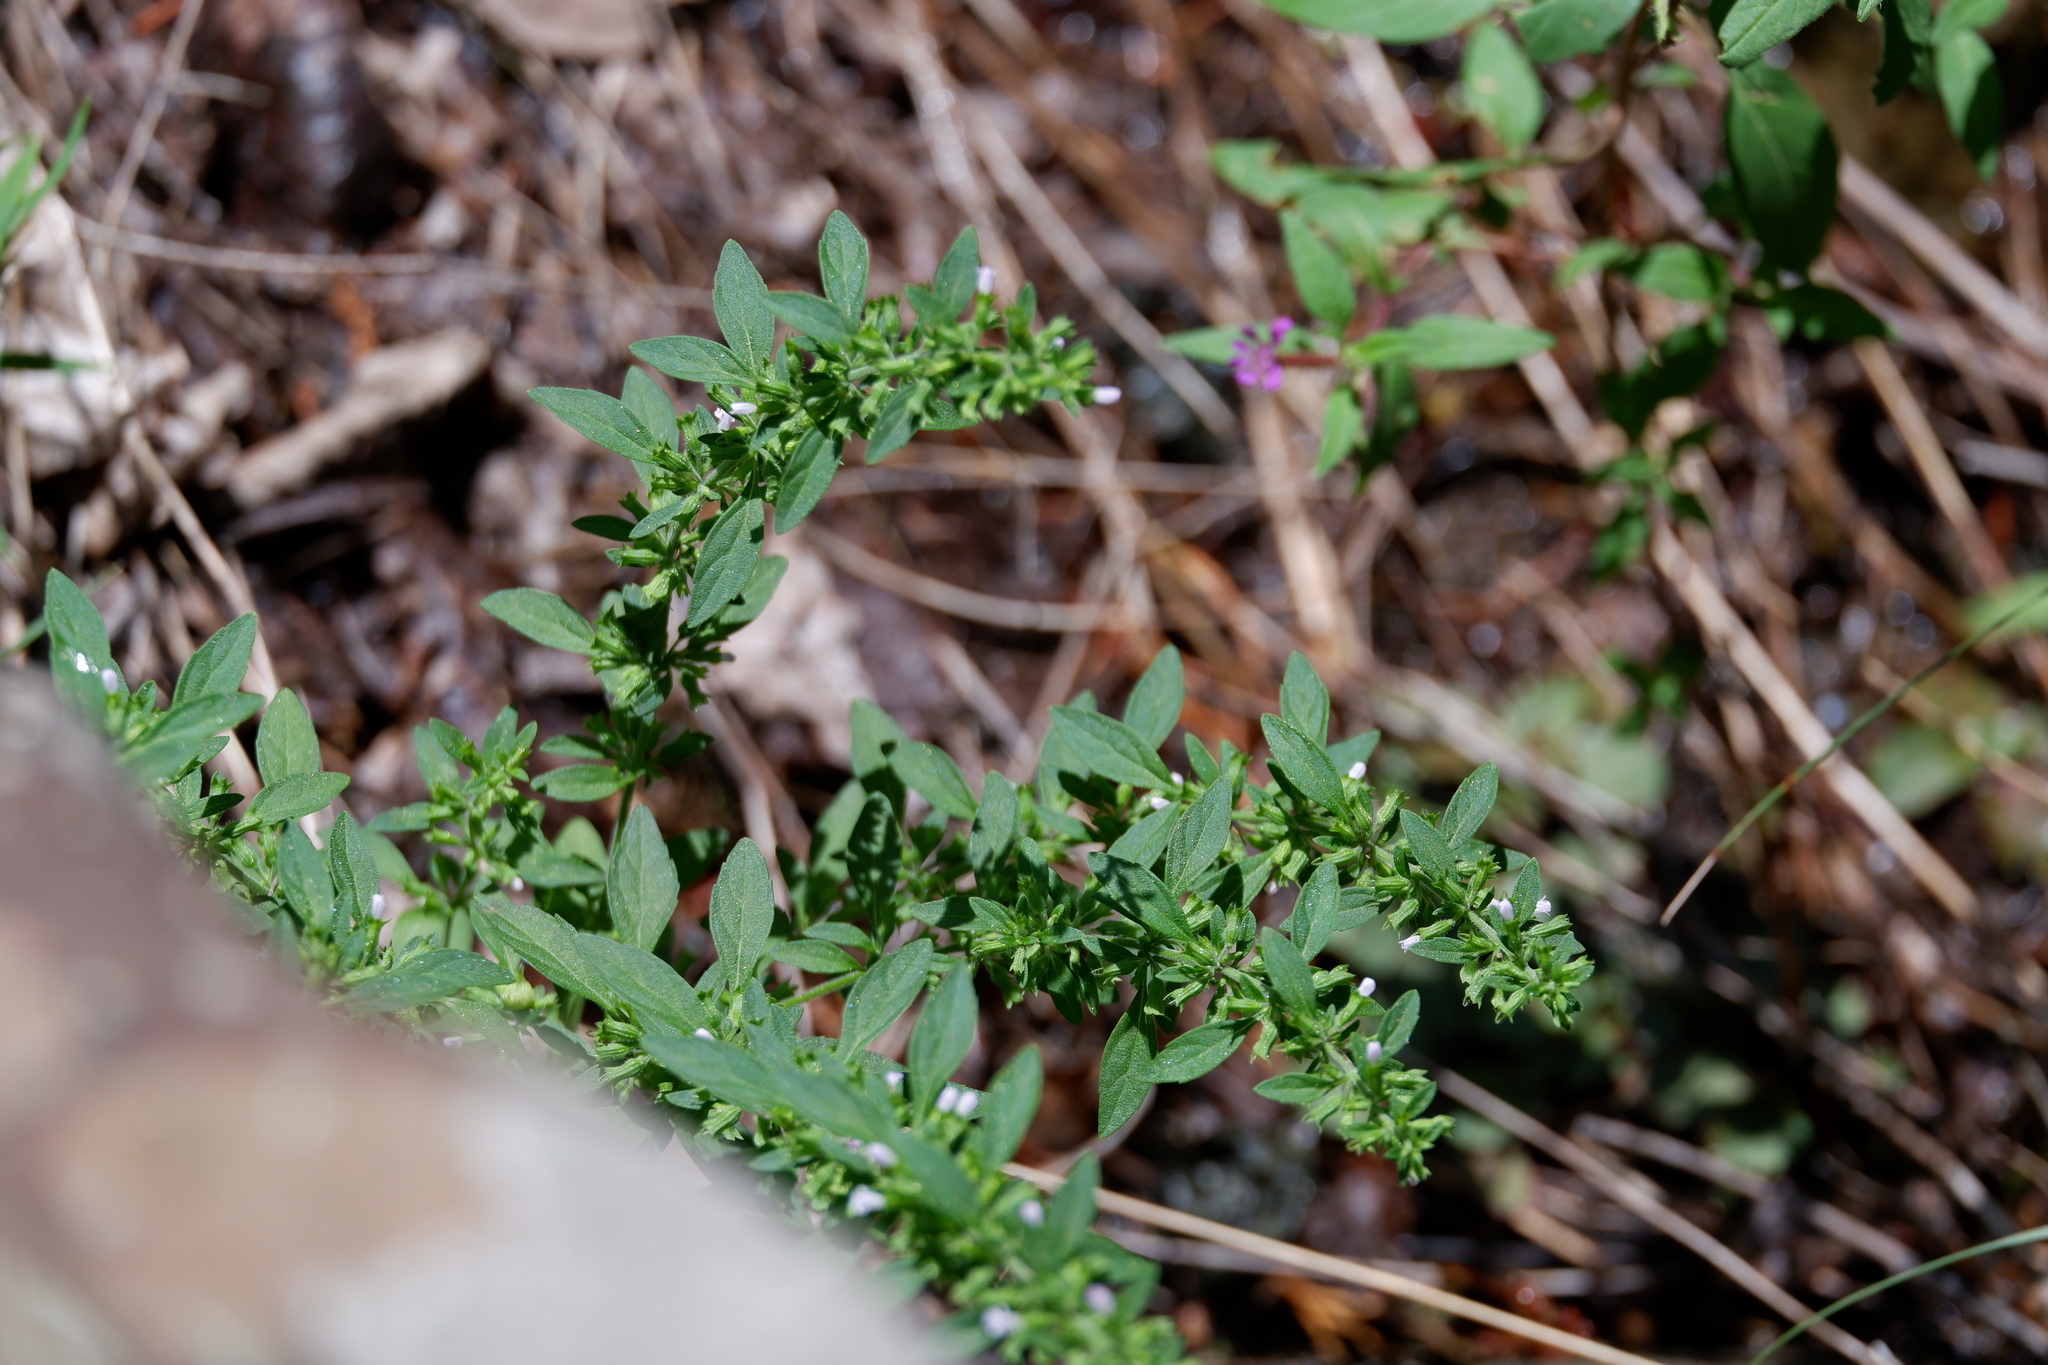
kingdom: Plantae
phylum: Tracheophyta
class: Magnoliopsida
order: Lamiales
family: Lamiaceae
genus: Hedeoma
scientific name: Hedeoma pulegioides
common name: American false pennyroyal
